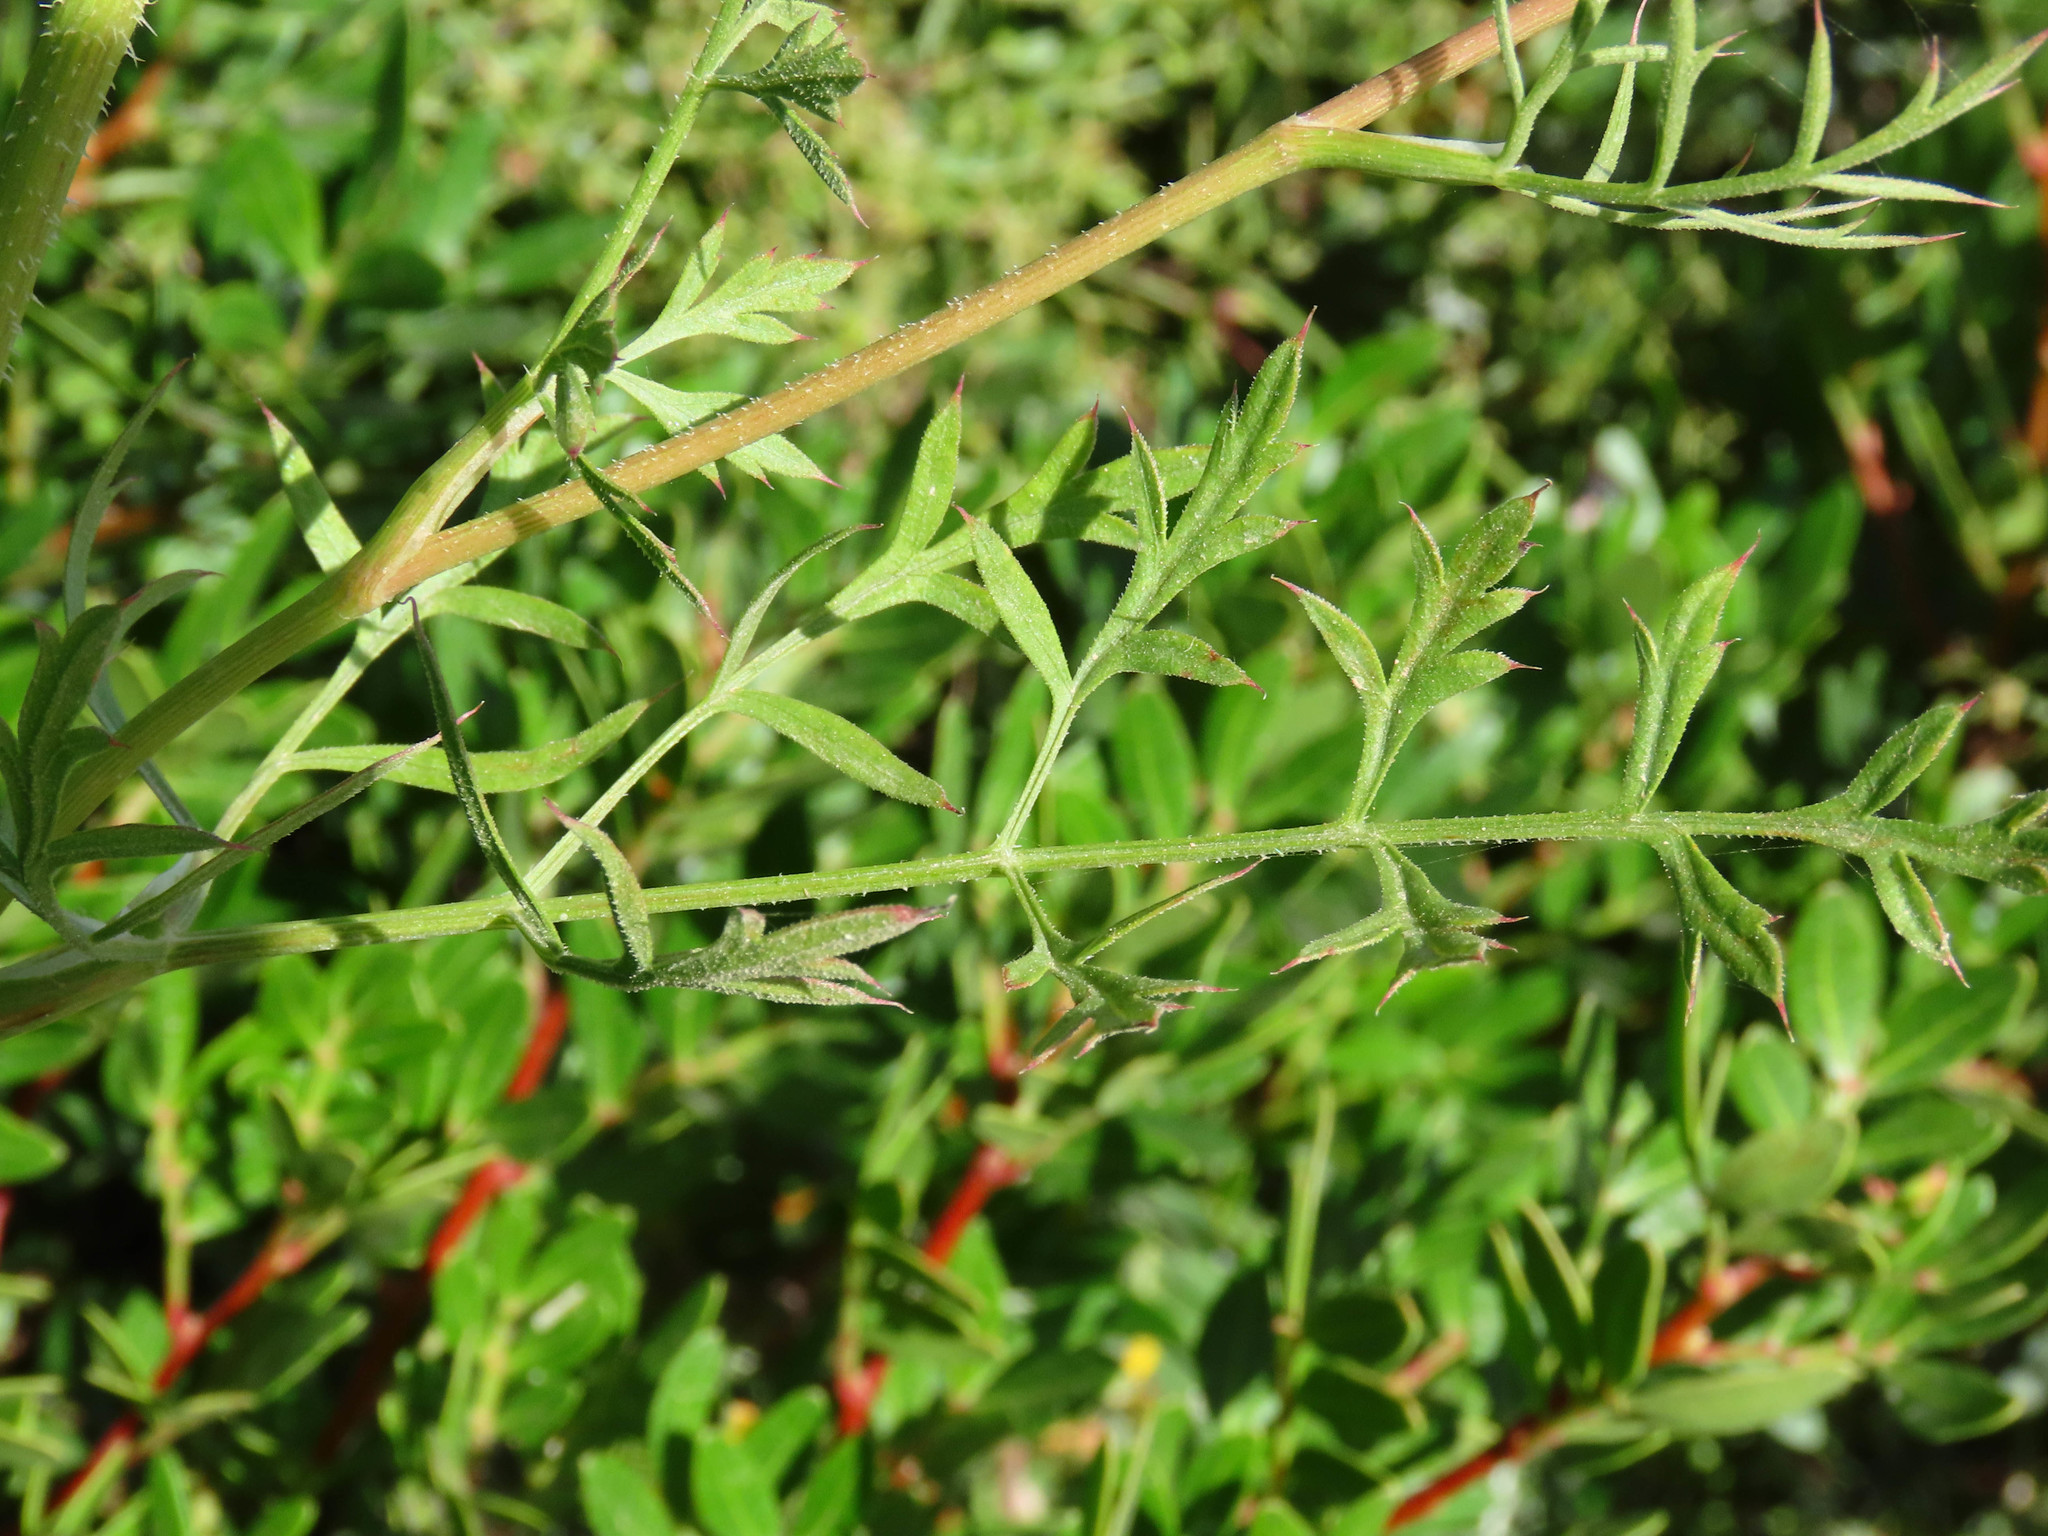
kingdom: Plantae
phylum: Tracheophyta
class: Magnoliopsida
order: Apiales
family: Apiaceae
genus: Daucus
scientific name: Daucus carota
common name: Wild carrot
